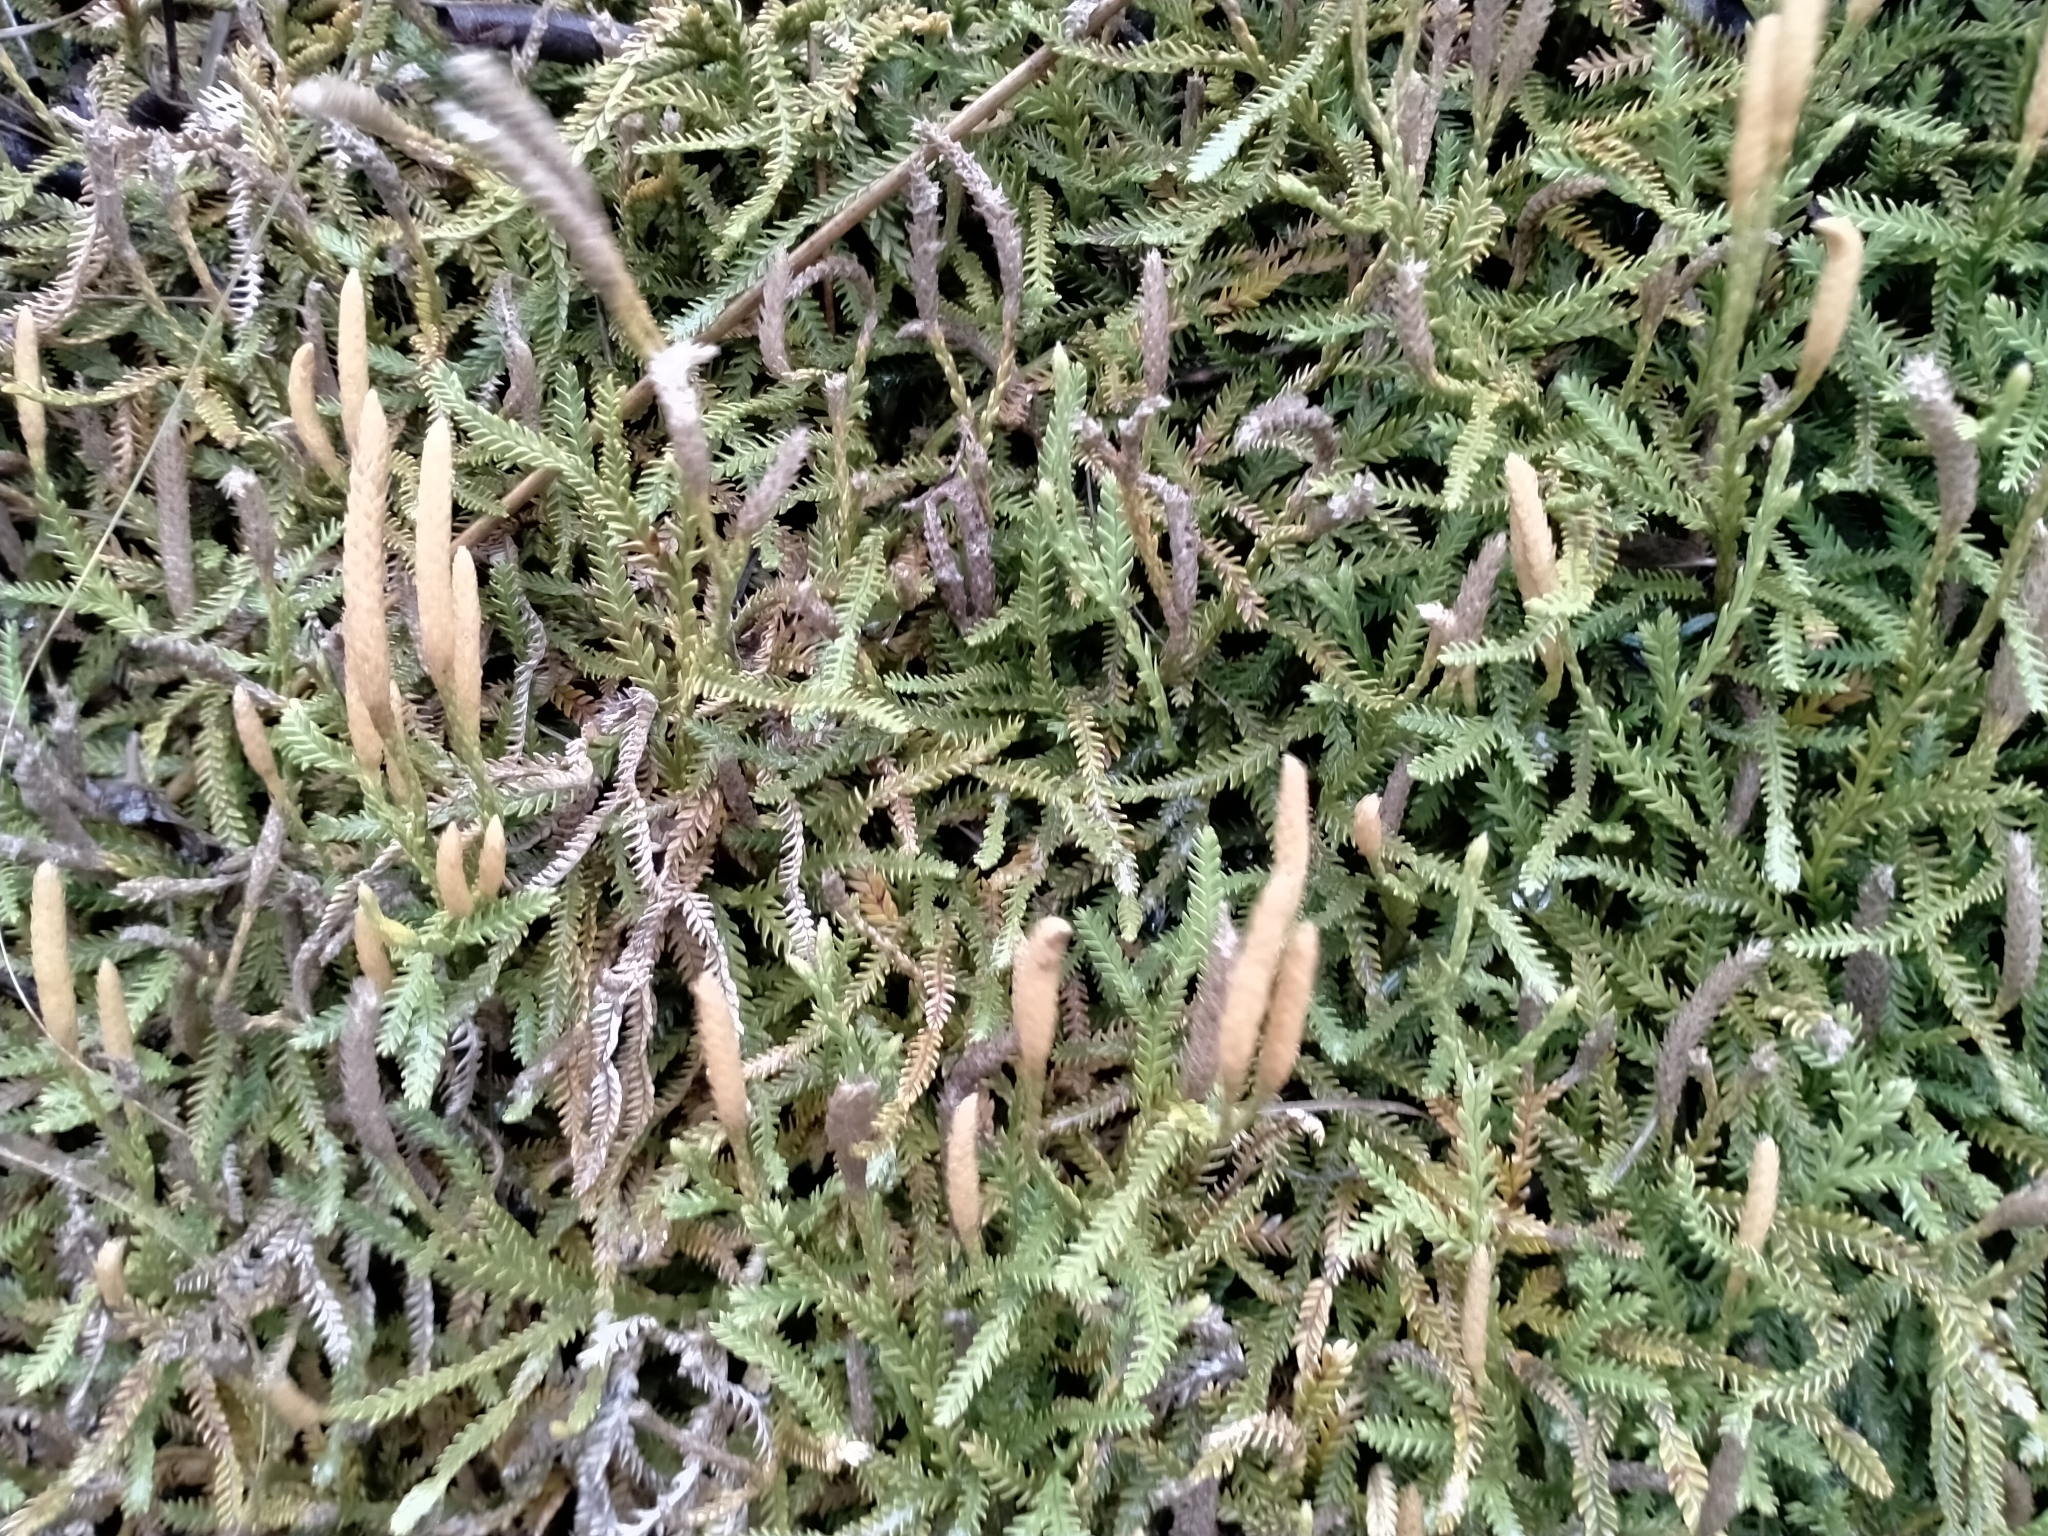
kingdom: Plantae
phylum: Tracheophyta
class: Lycopodiopsida
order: Lycopodiales
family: Lycopodiaceae
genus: Diphasium
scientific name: Diphasium scariosum
